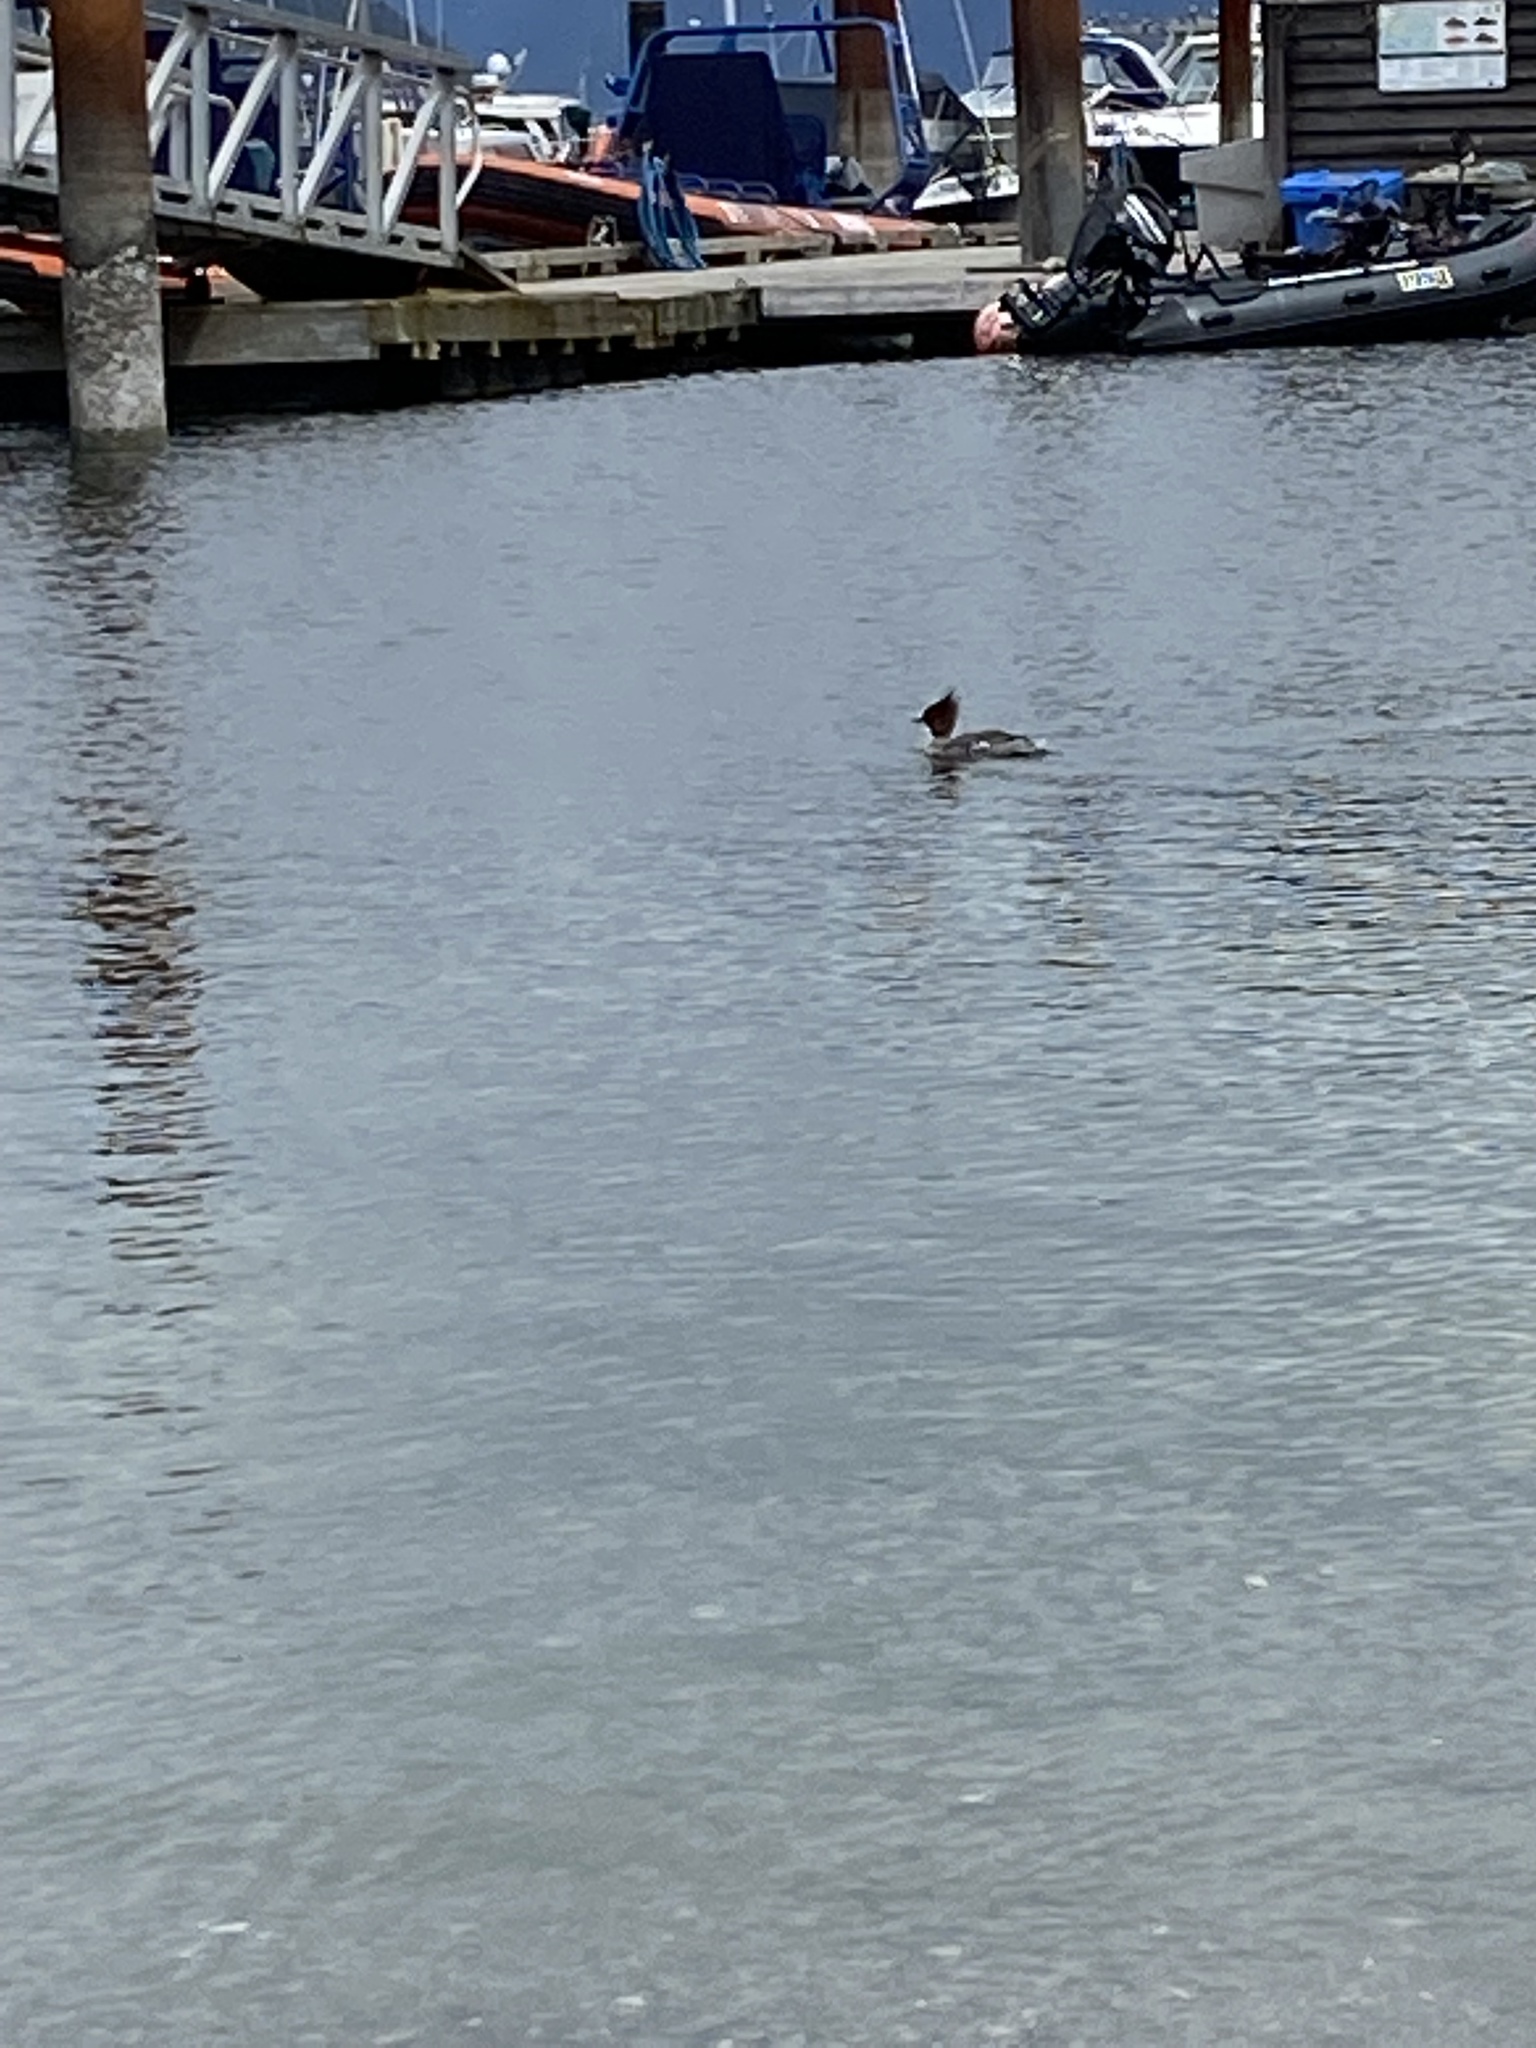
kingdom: Animalia
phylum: Chordata
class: Aves
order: Anseriformes
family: Anatidae
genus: Mergus
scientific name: Mergus merganser
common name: Common merganser
